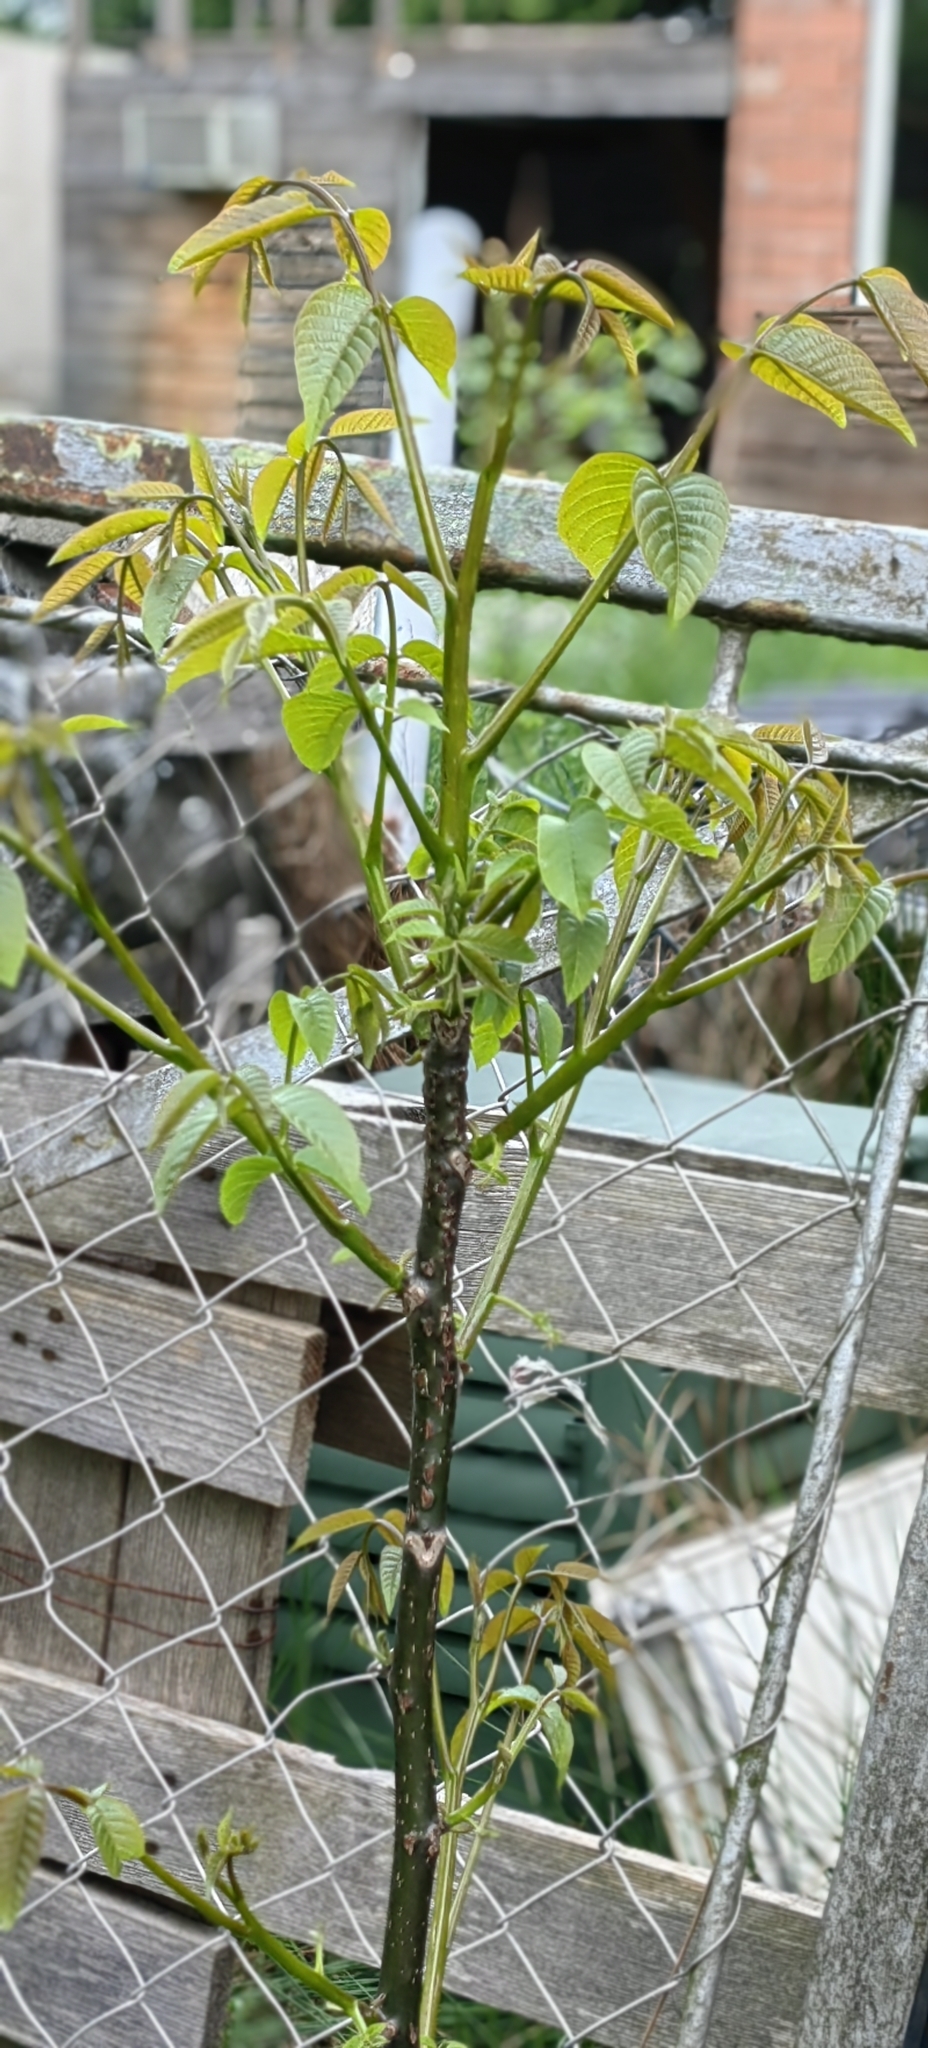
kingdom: Plantae
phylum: Tracheophyta
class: Magnoliopsida
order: Fagales
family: Juglandaceae
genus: Juglans
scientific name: Juglans regia
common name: Walnut
